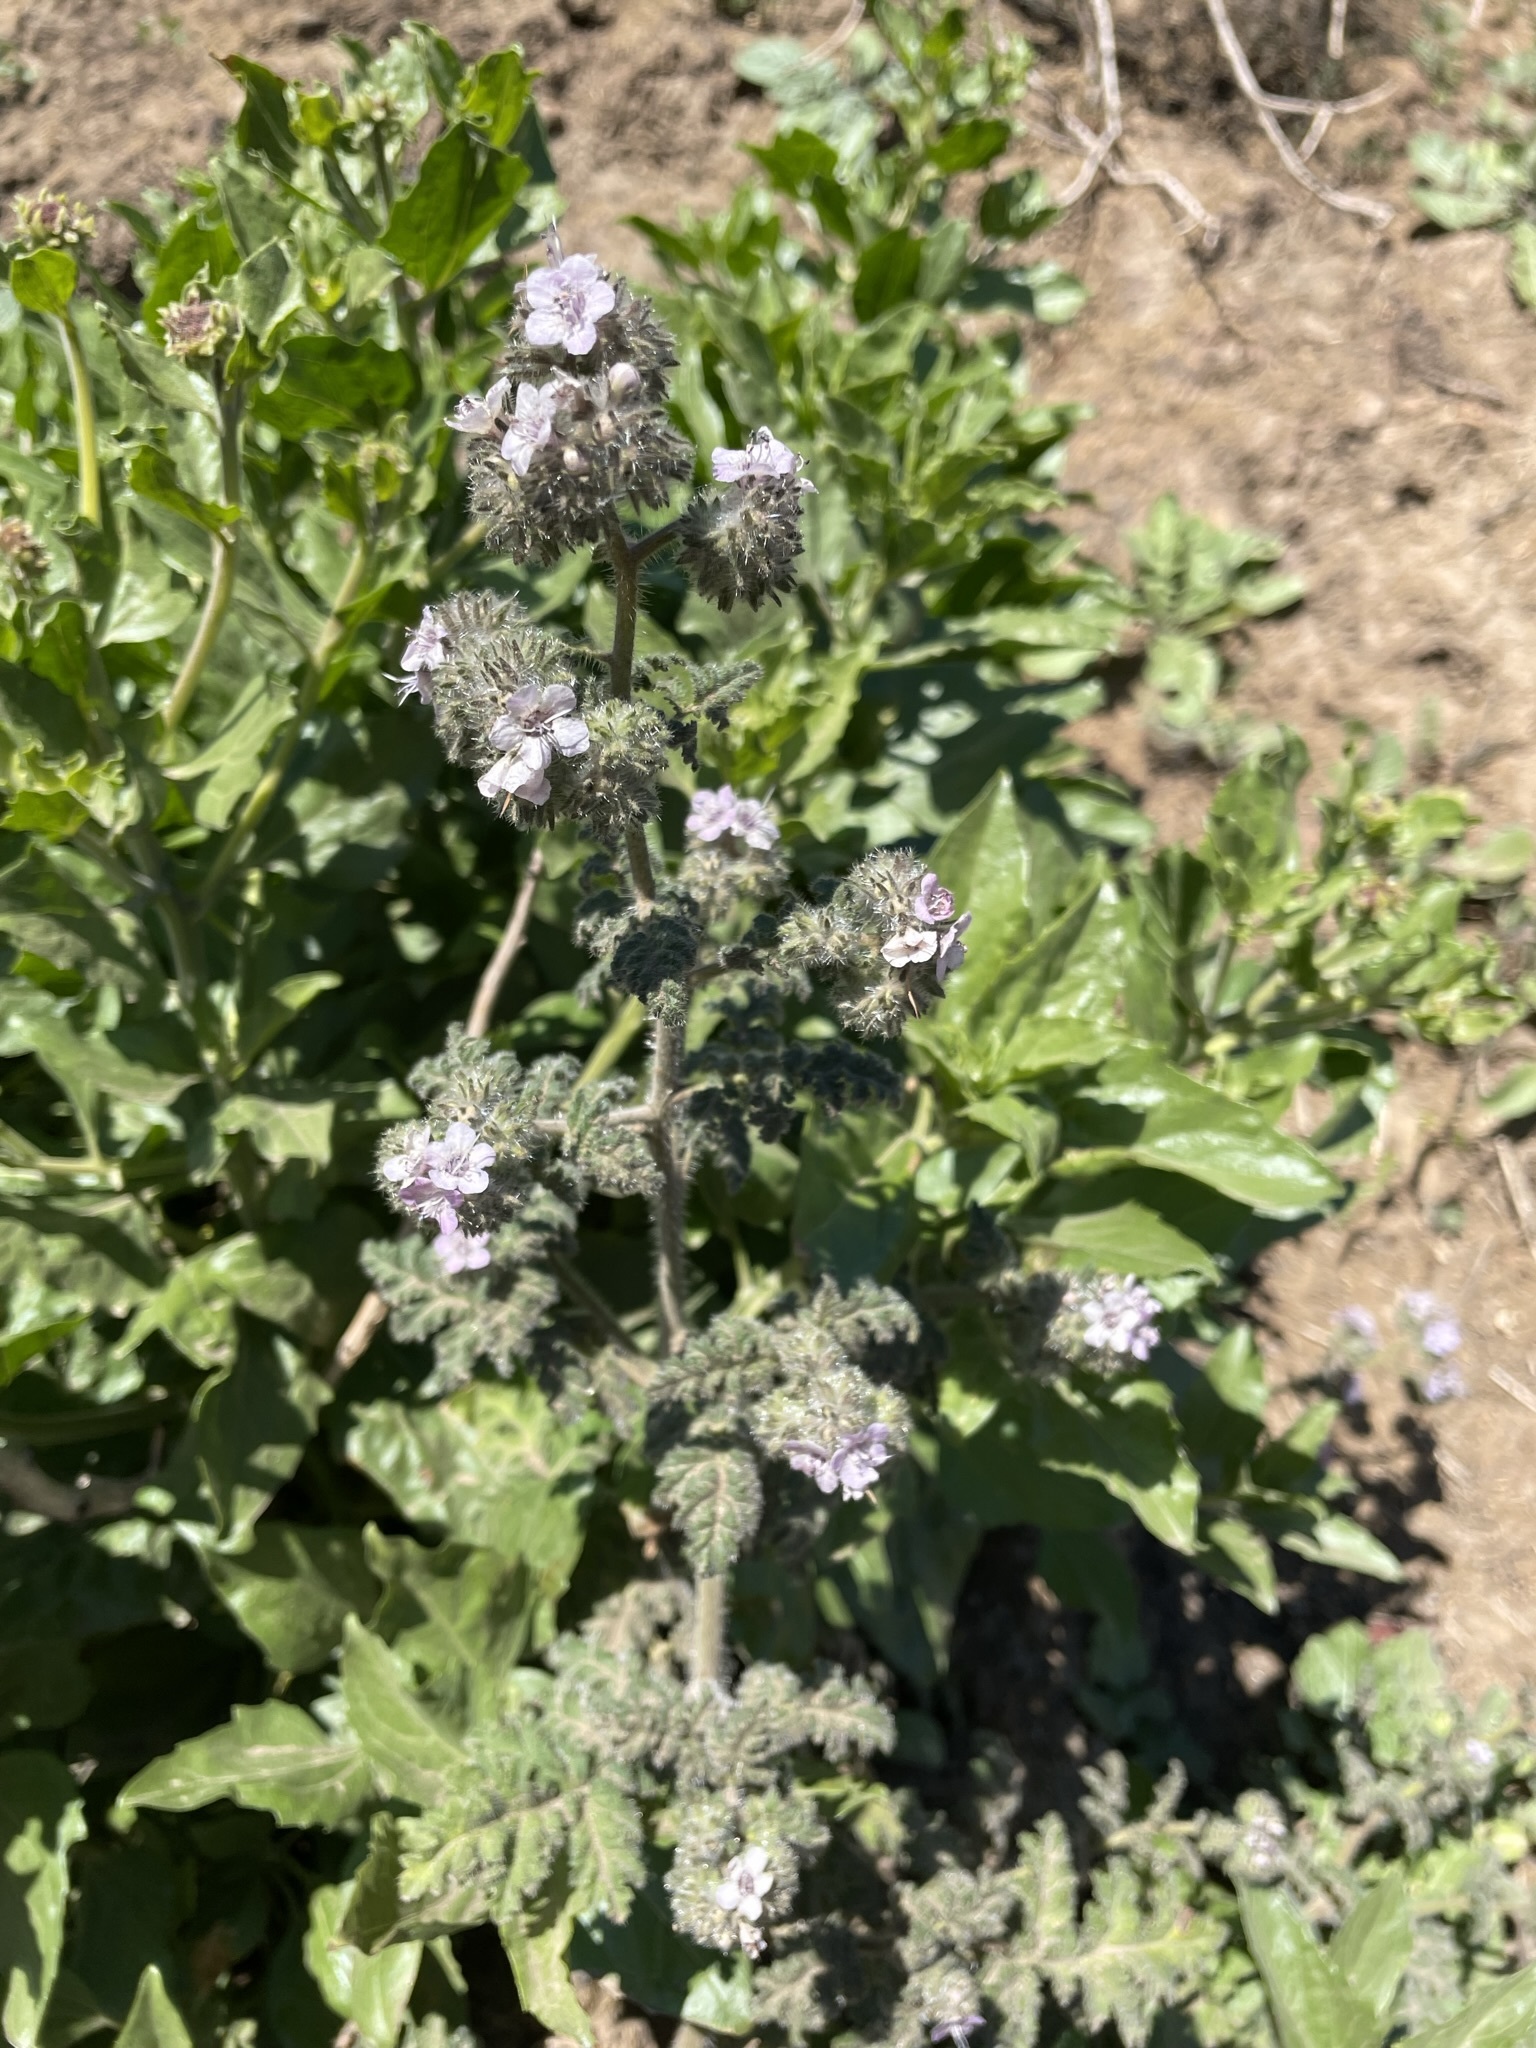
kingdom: Plantae
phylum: Tracheophyta
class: Magnoliopsida
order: Boraginales
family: Hydrophyllaceae
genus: Phacelia
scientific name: Phacelia cicutaria
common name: Caterpillar phacelia
